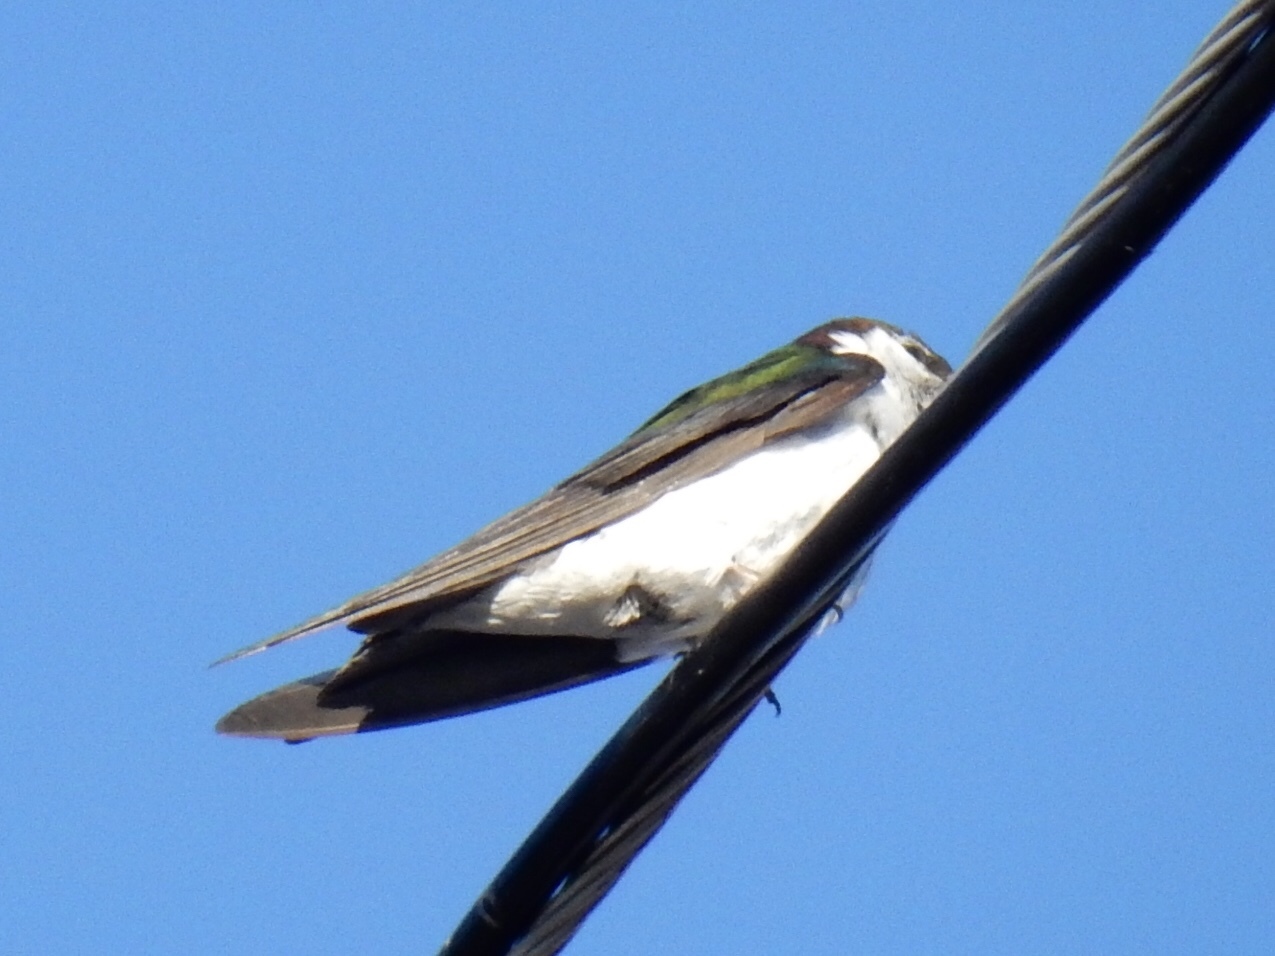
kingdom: Animalia
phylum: Chordata
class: Aves
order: Passeriformes
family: Hirundinidae
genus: Tachycineta
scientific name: Tachycineta thalassina
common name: Violet-green swallow
